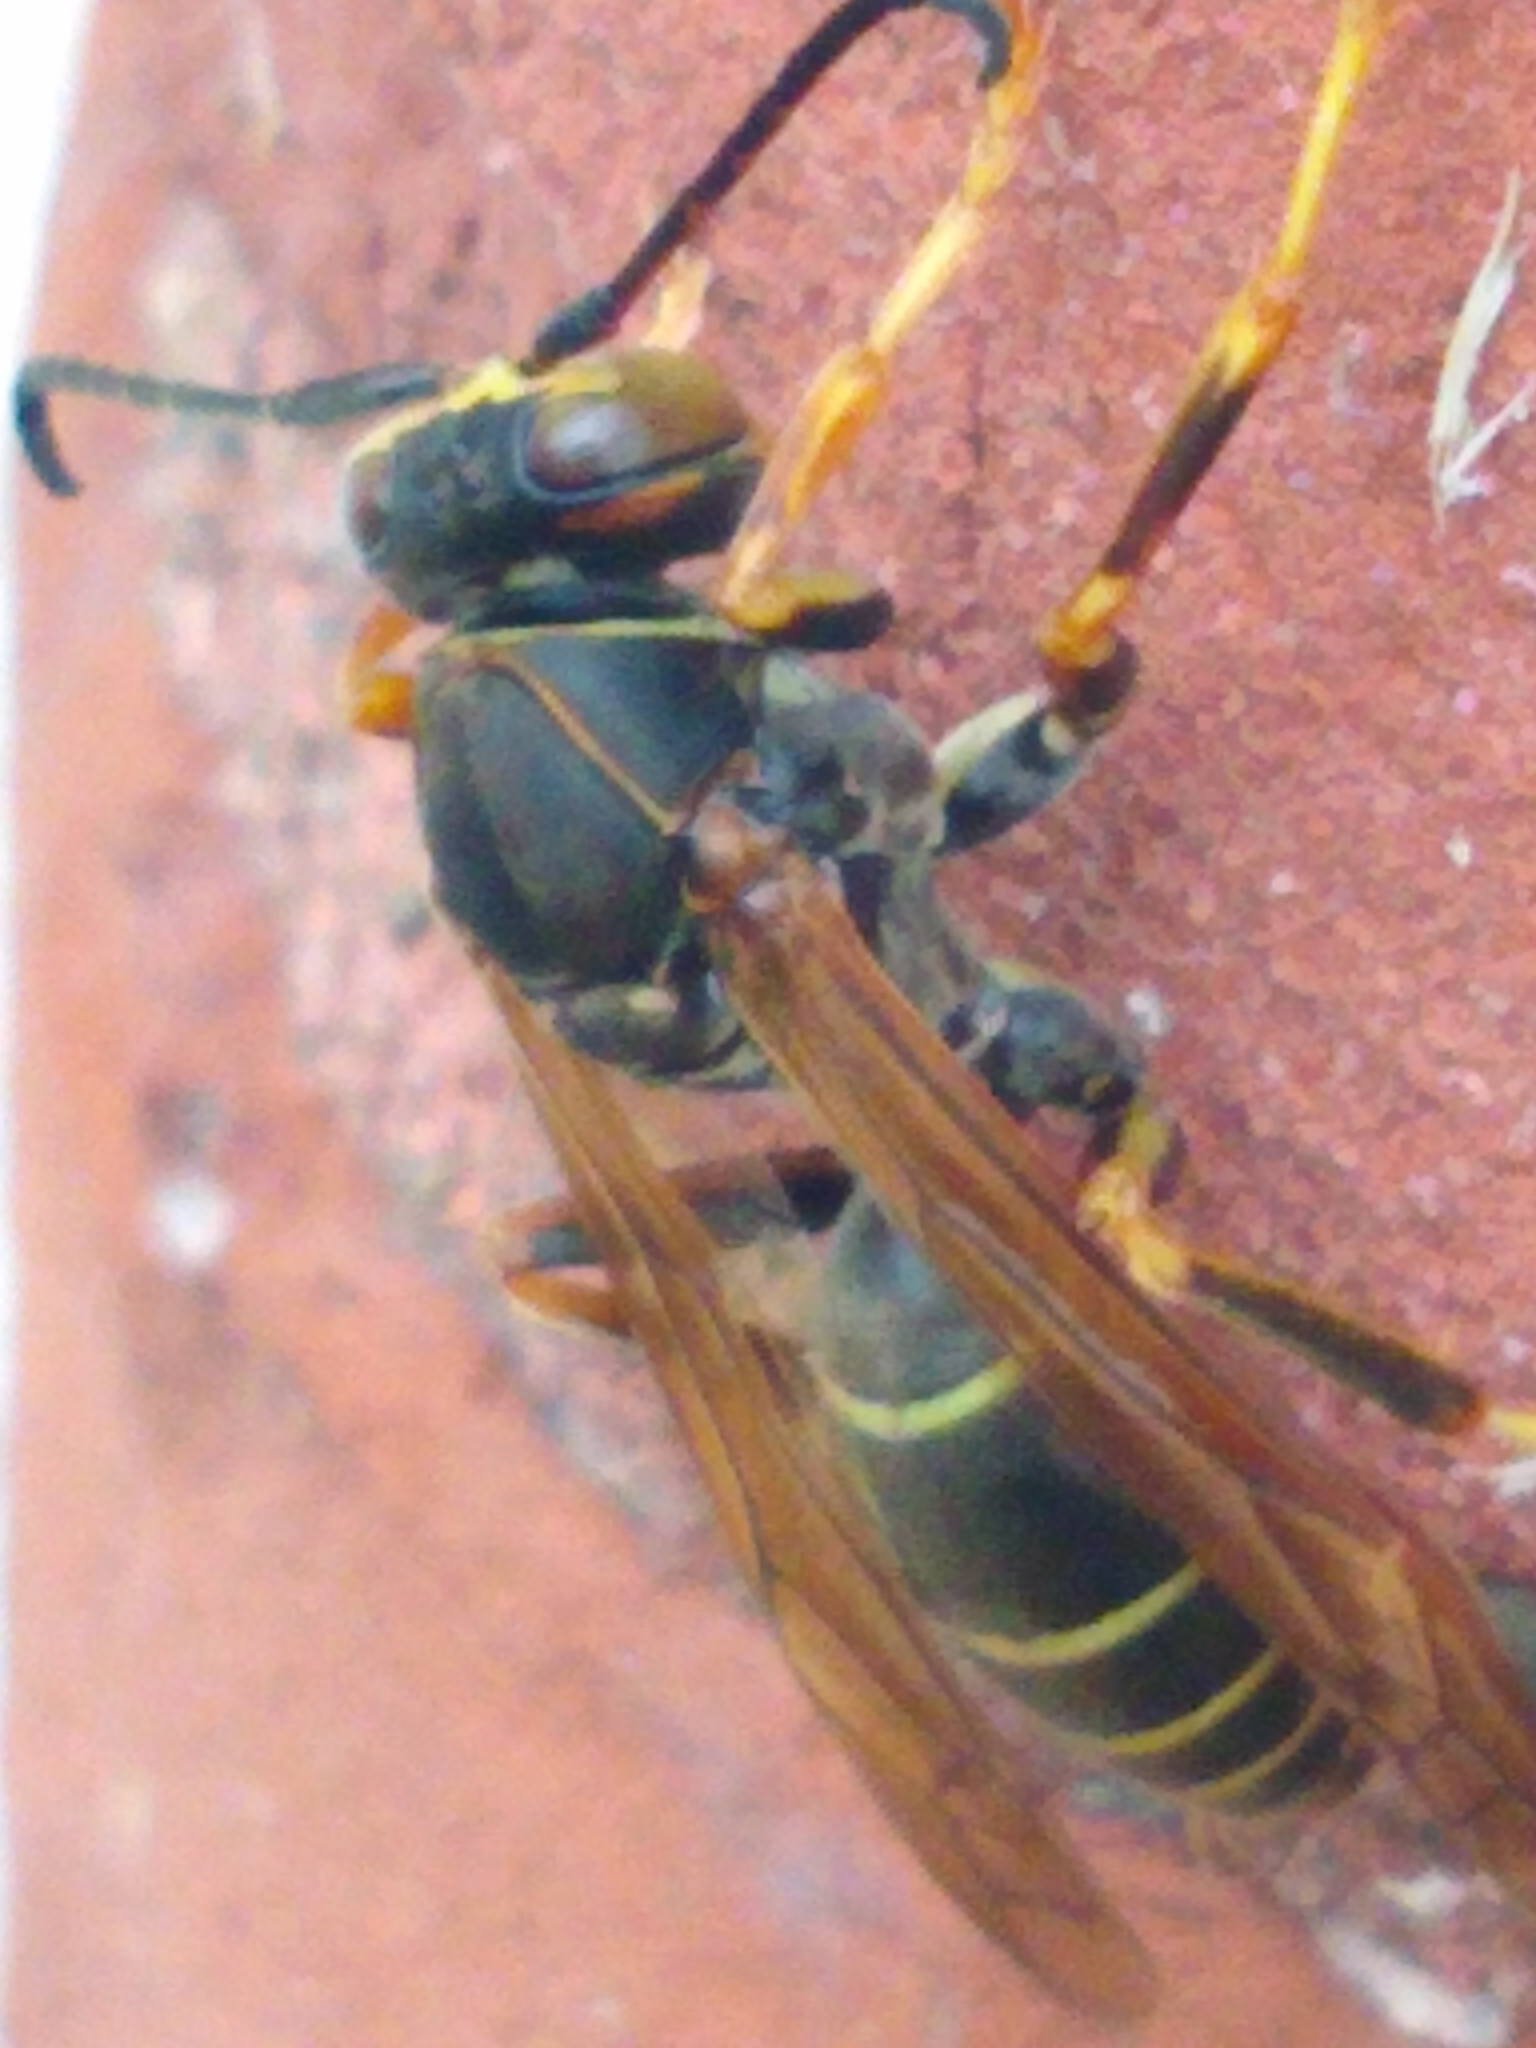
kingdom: Animalia
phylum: Arthropoda
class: Insecta
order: Hymenoptera
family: Eumenidae
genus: Polistes
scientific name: Polistes fuscatus
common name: Dark paper wasp
